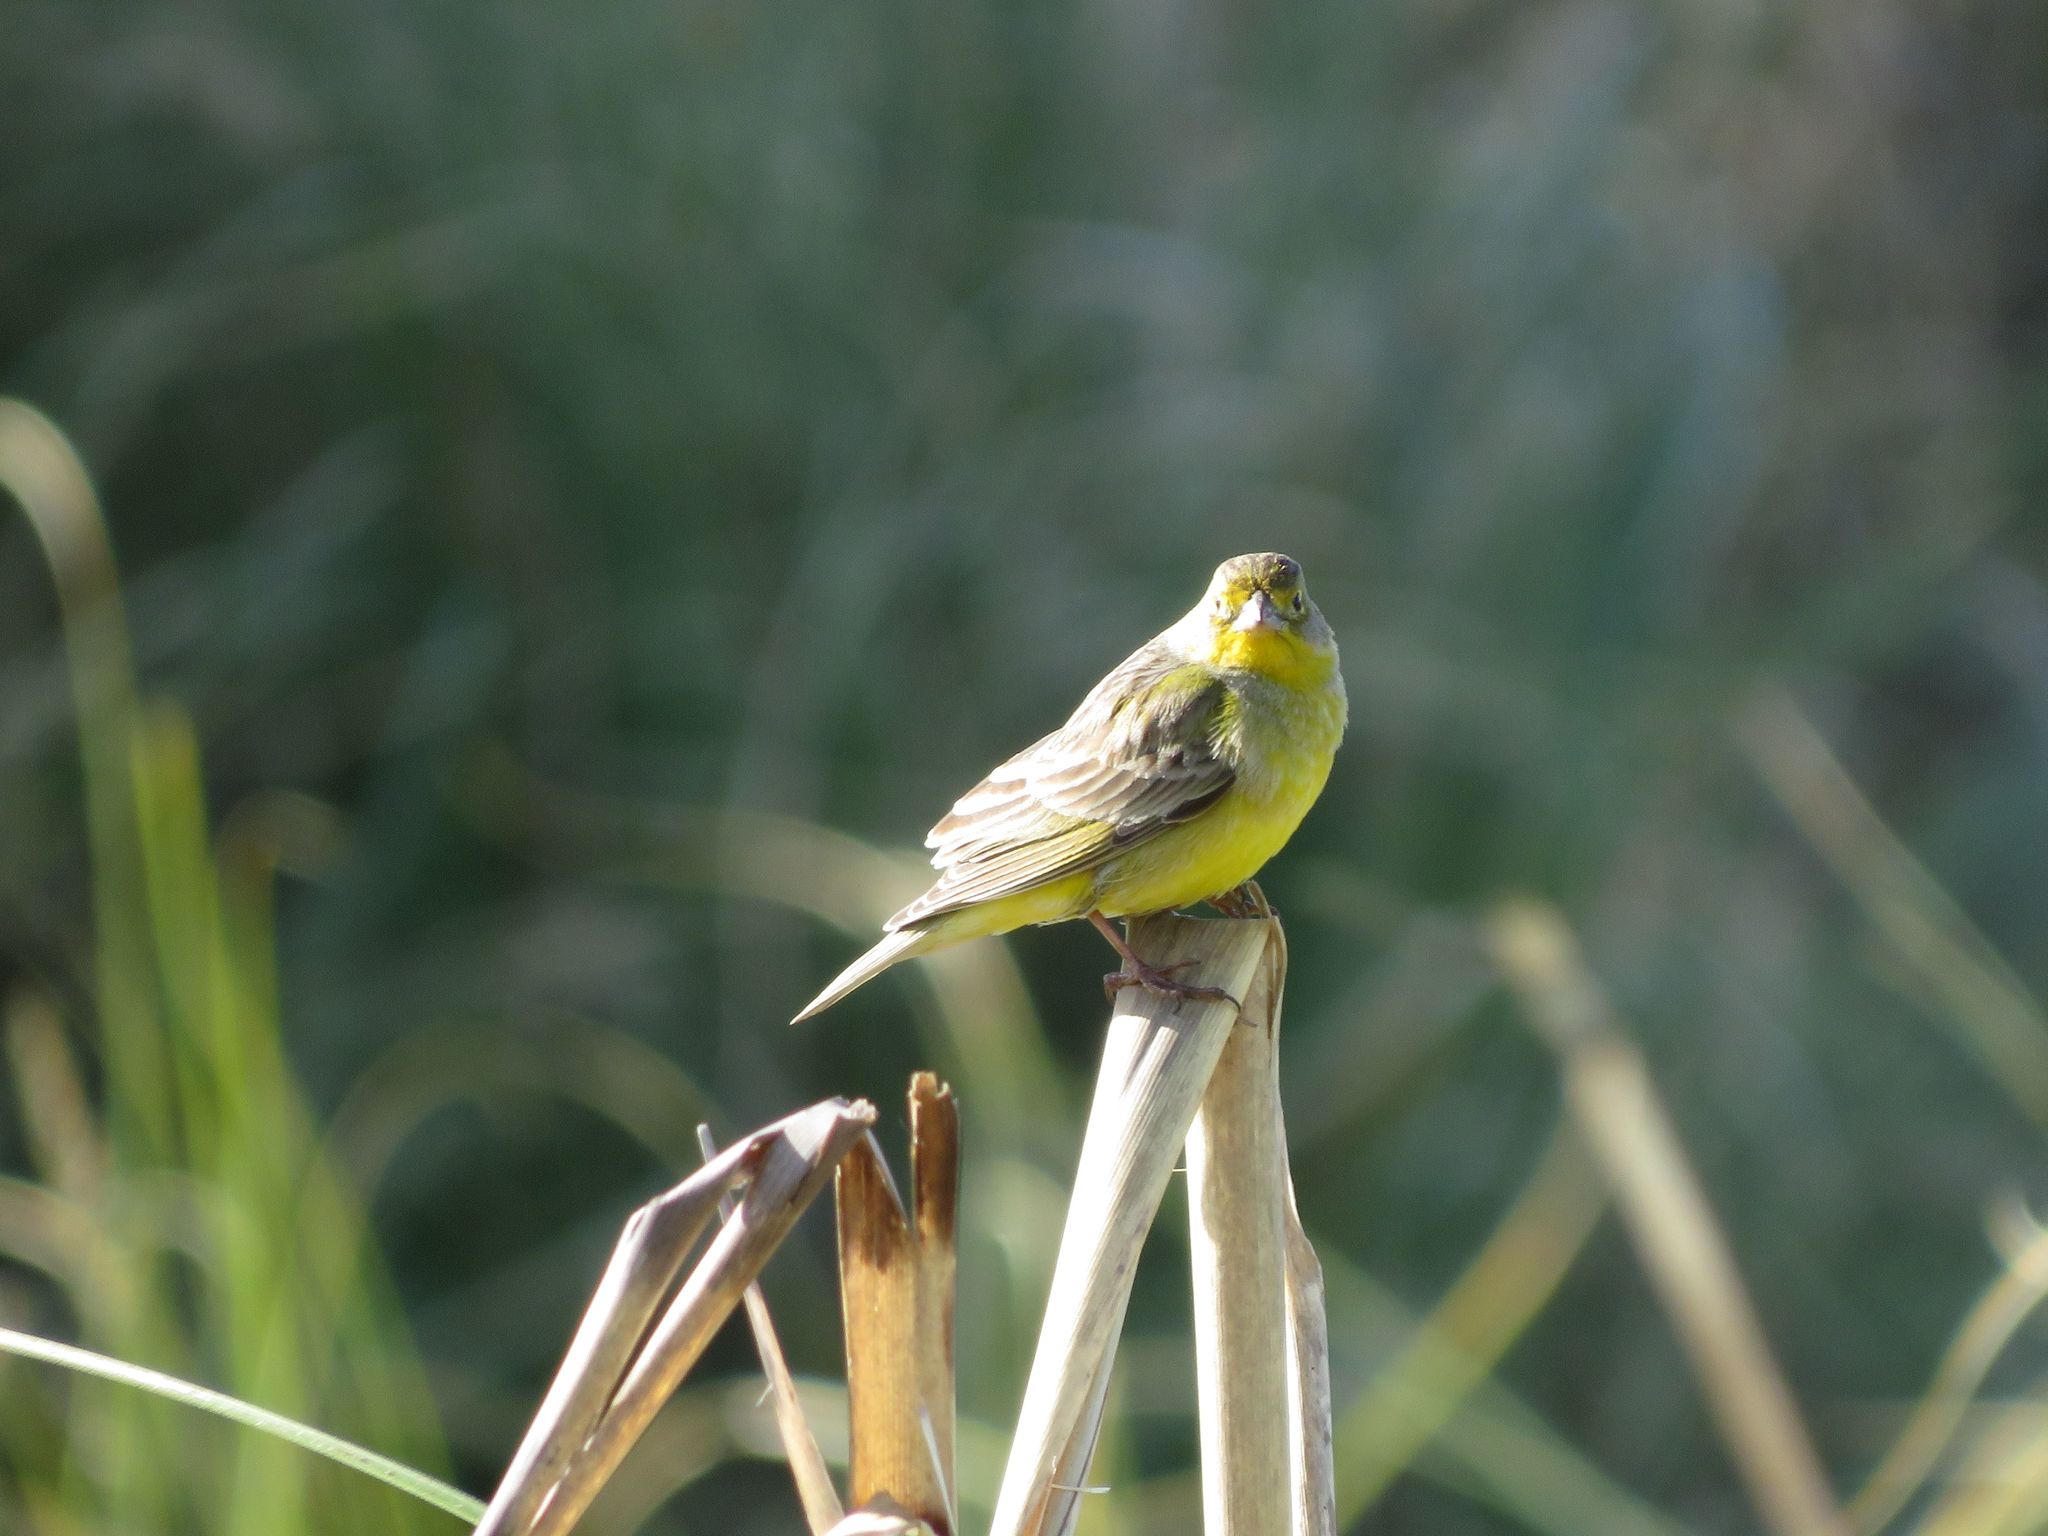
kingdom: Animalia
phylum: Chordata
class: Aves
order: Passeriformes
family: Thraupidae
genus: Sicalis
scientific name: Sicalis luteola
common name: Grassland yellow-finch
